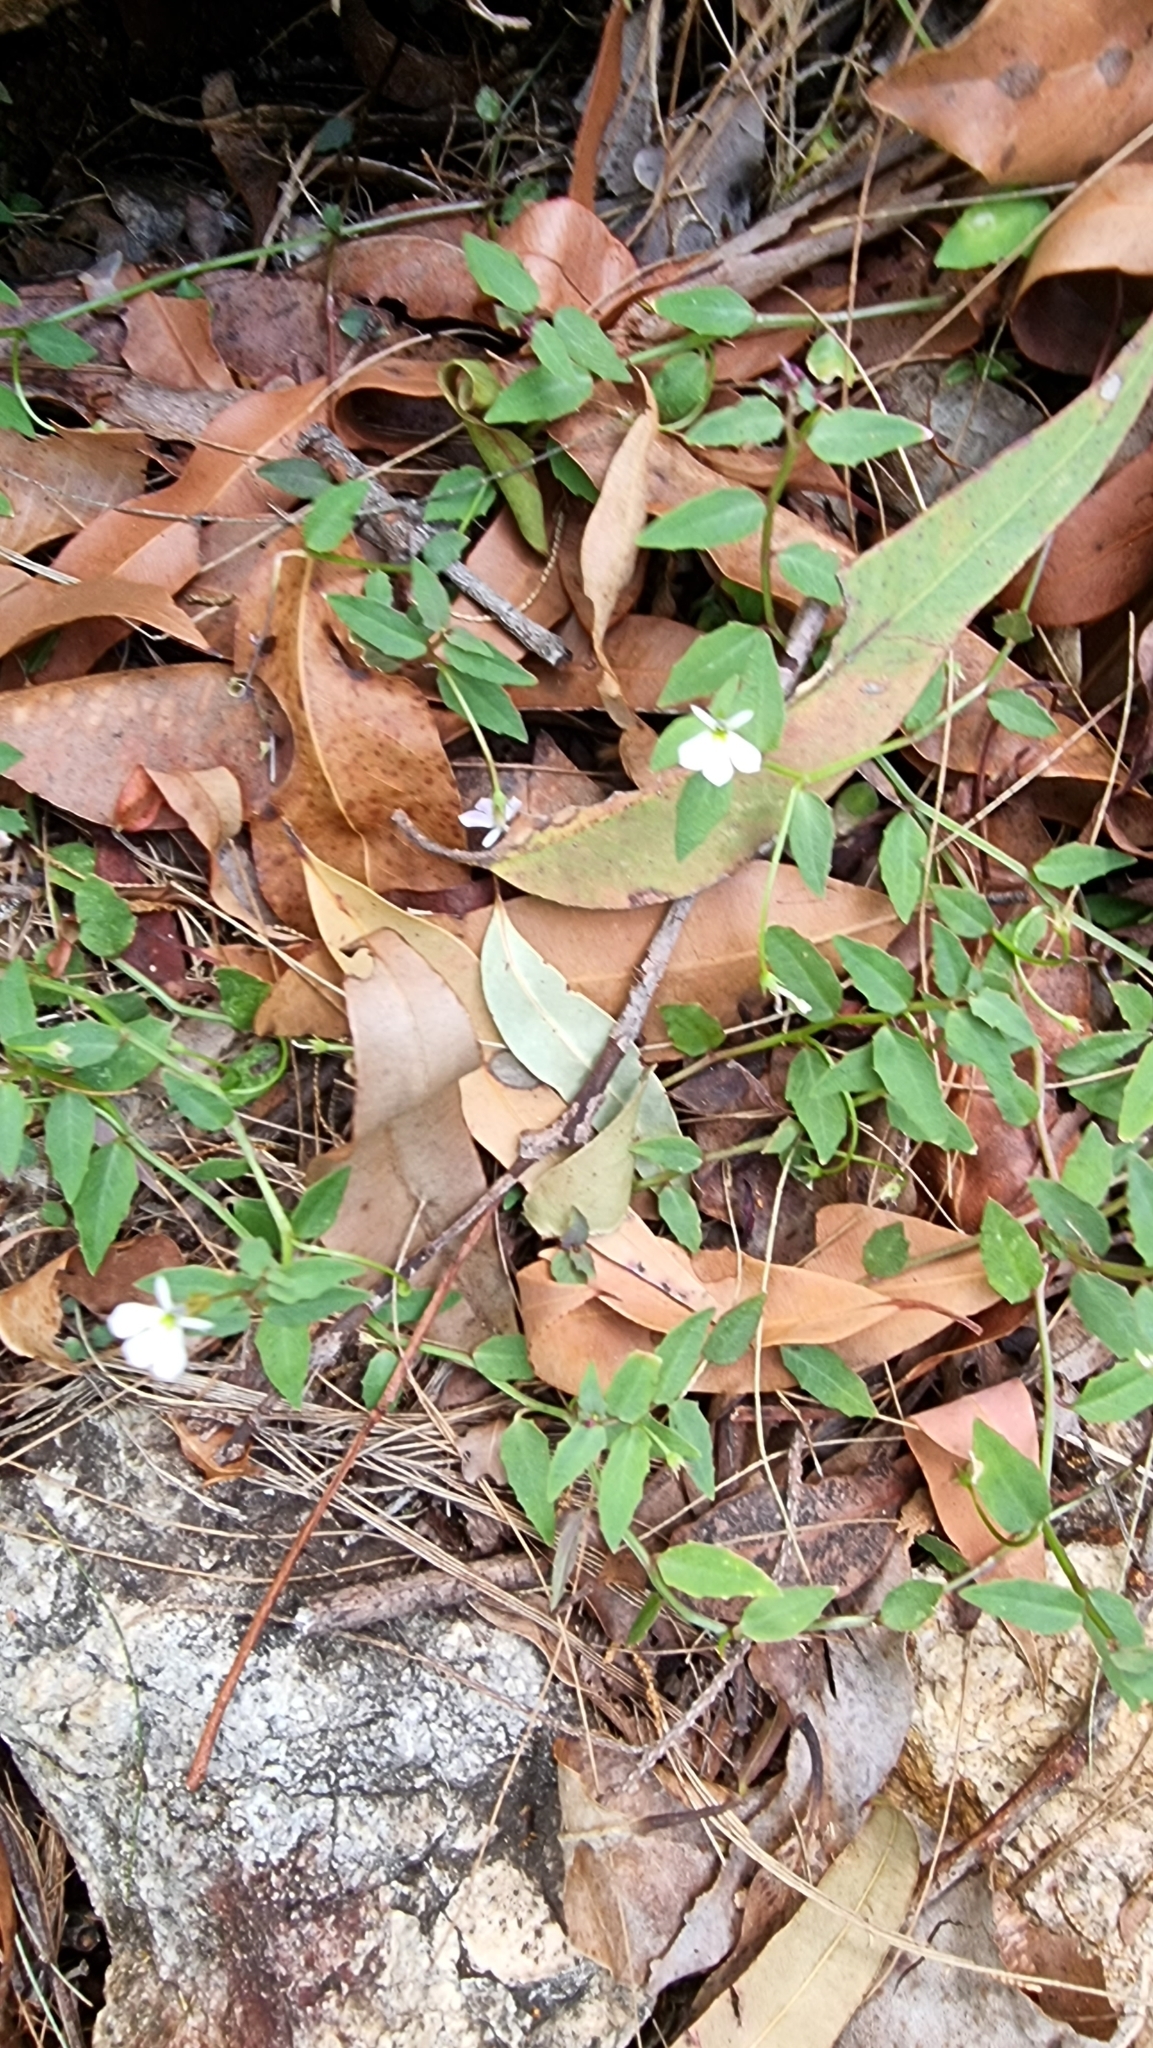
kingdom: Plantae
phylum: Tracheophyta
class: Magnoliopsida
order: Asterales
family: Campanulaceae
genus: Lobelia
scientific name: Lobelia purpurascens
